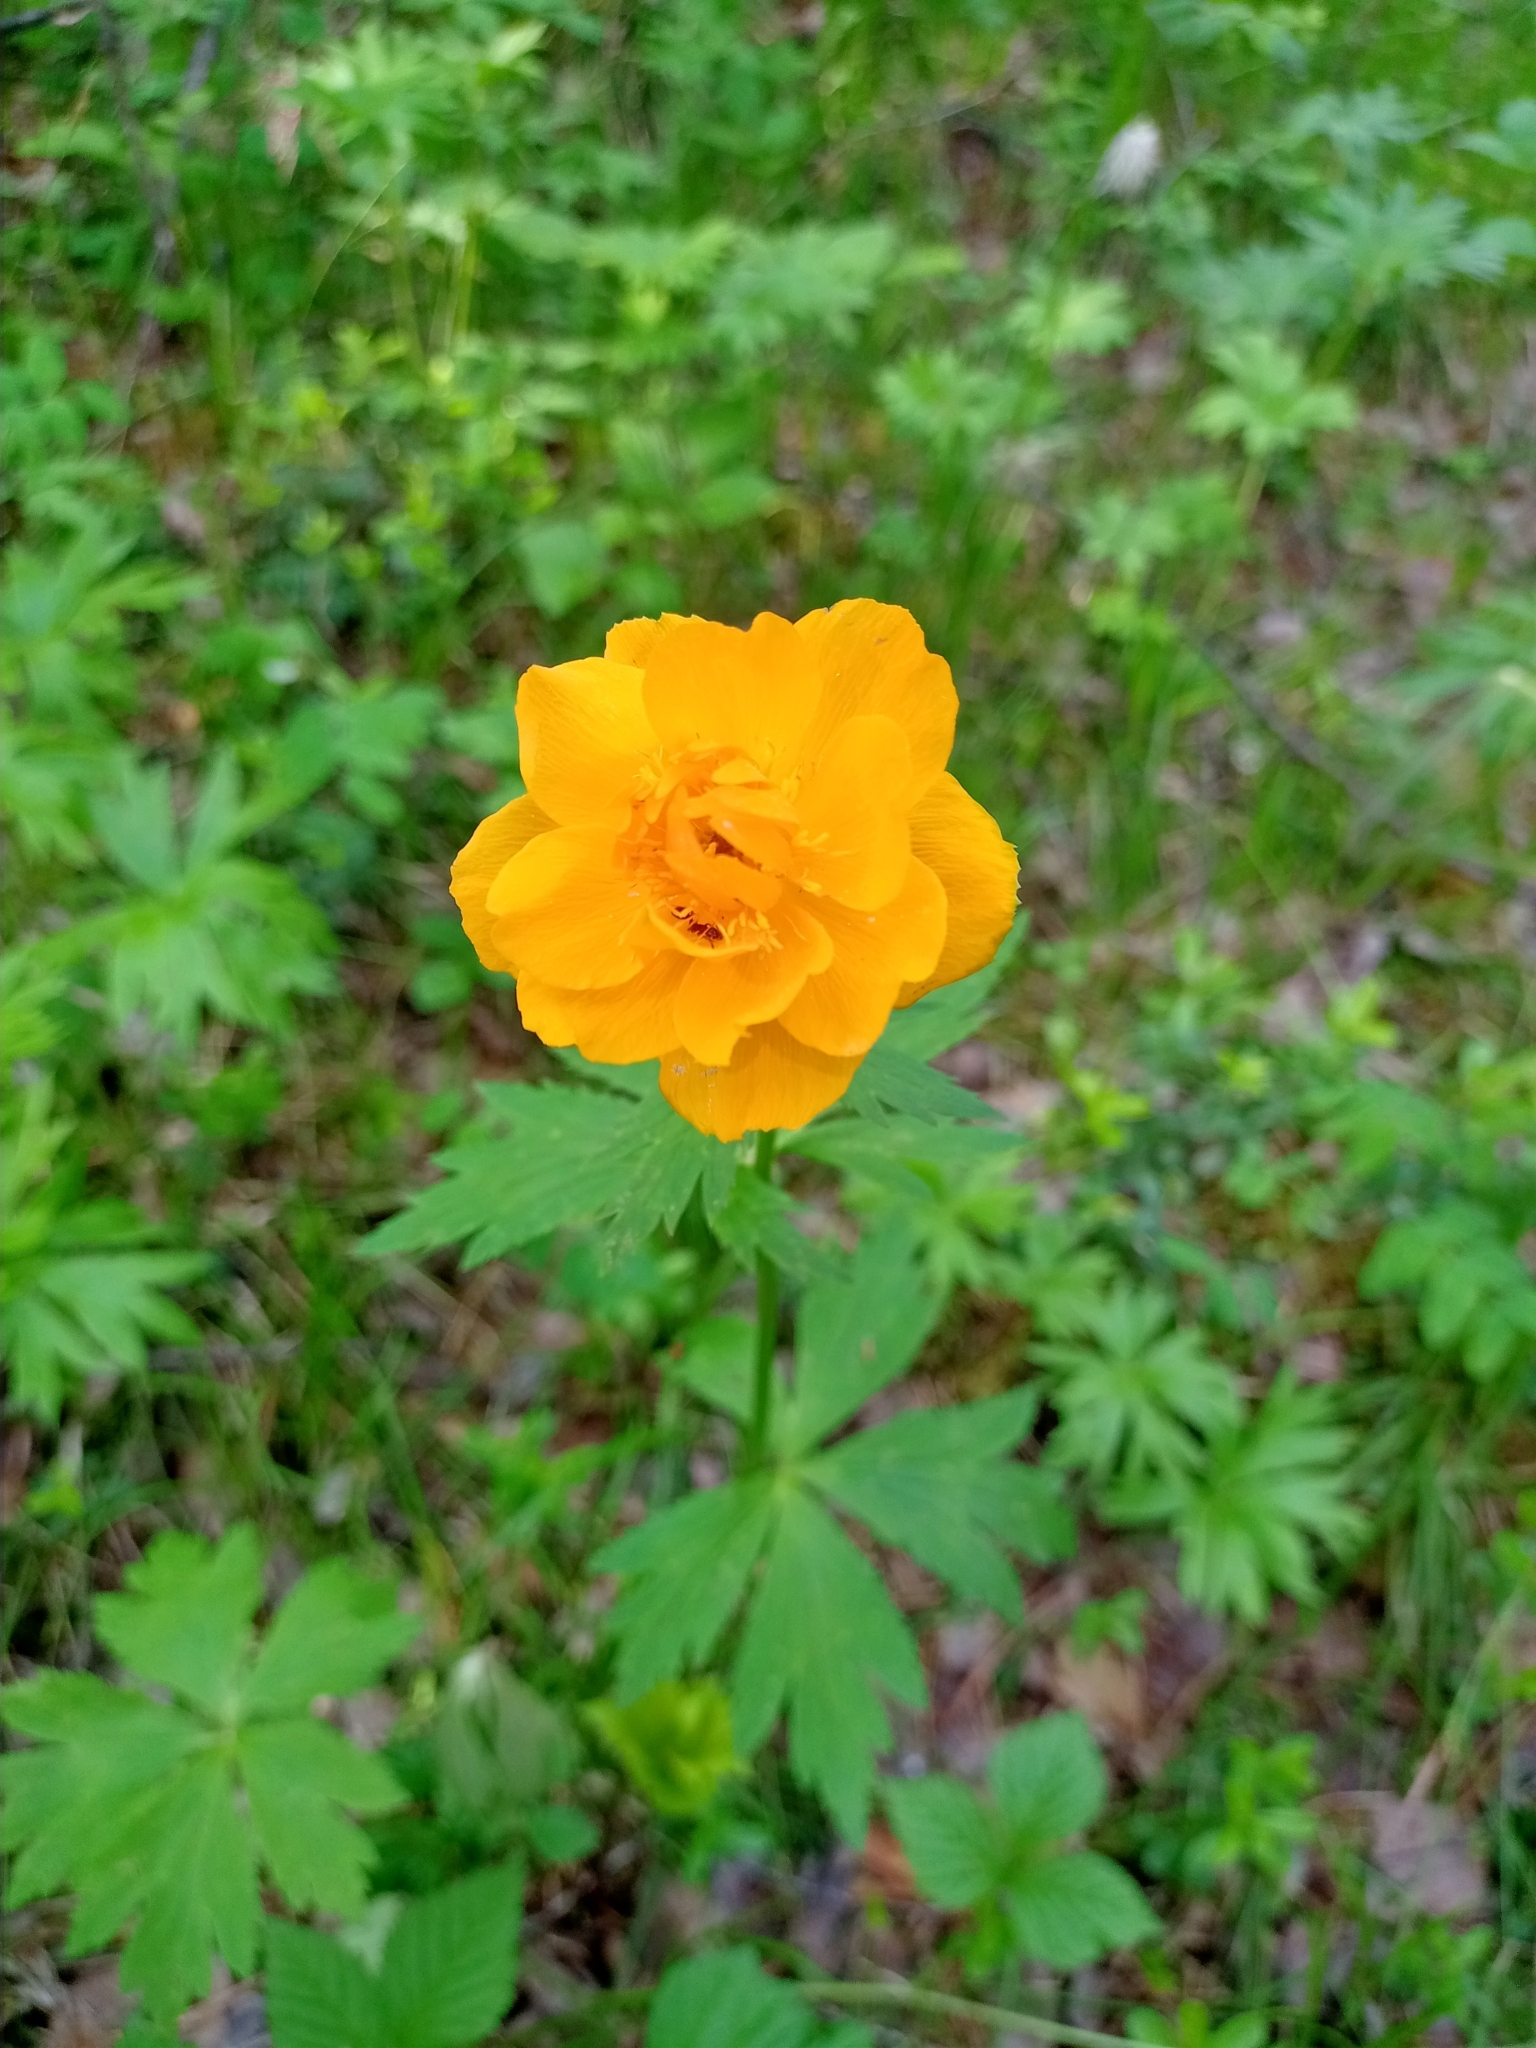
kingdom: Plantae
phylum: Tracheophyta
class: Magnoliopsida
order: Ranunculales
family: Ranunculaceae
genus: Trollius
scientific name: Trollius asiaticus
